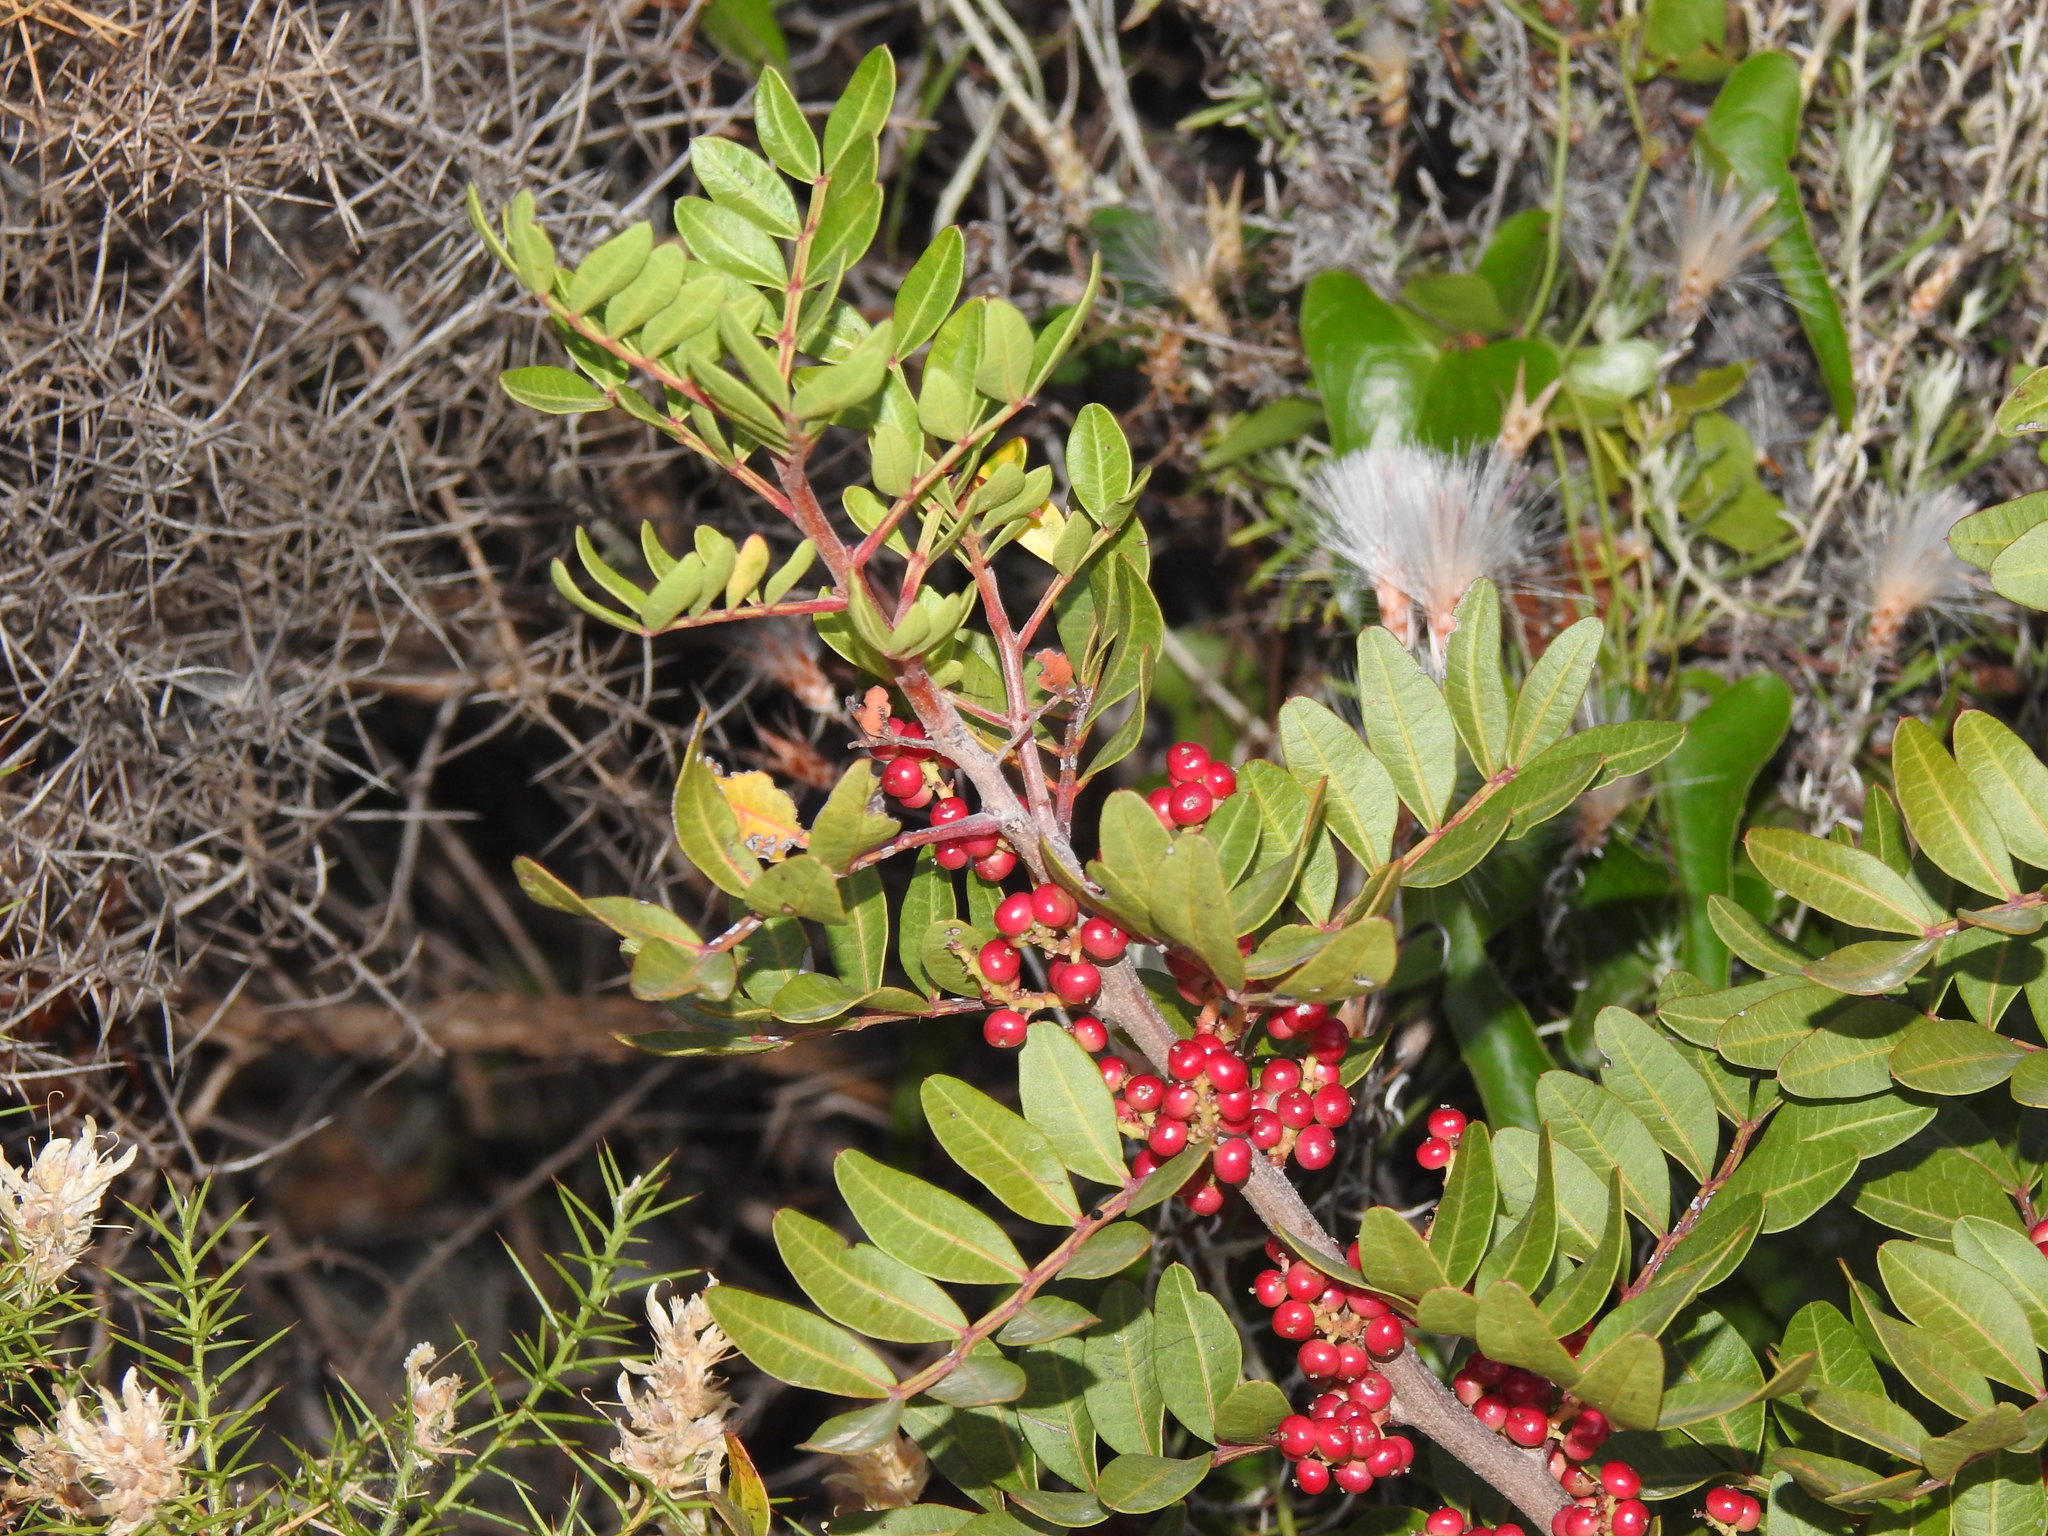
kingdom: Plantae
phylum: Tracheophyta
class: Magnoliopsida
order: Sapindales
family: Anacardiaceae
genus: Pistacia
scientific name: Pistacia lentiscus
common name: Lentisk
